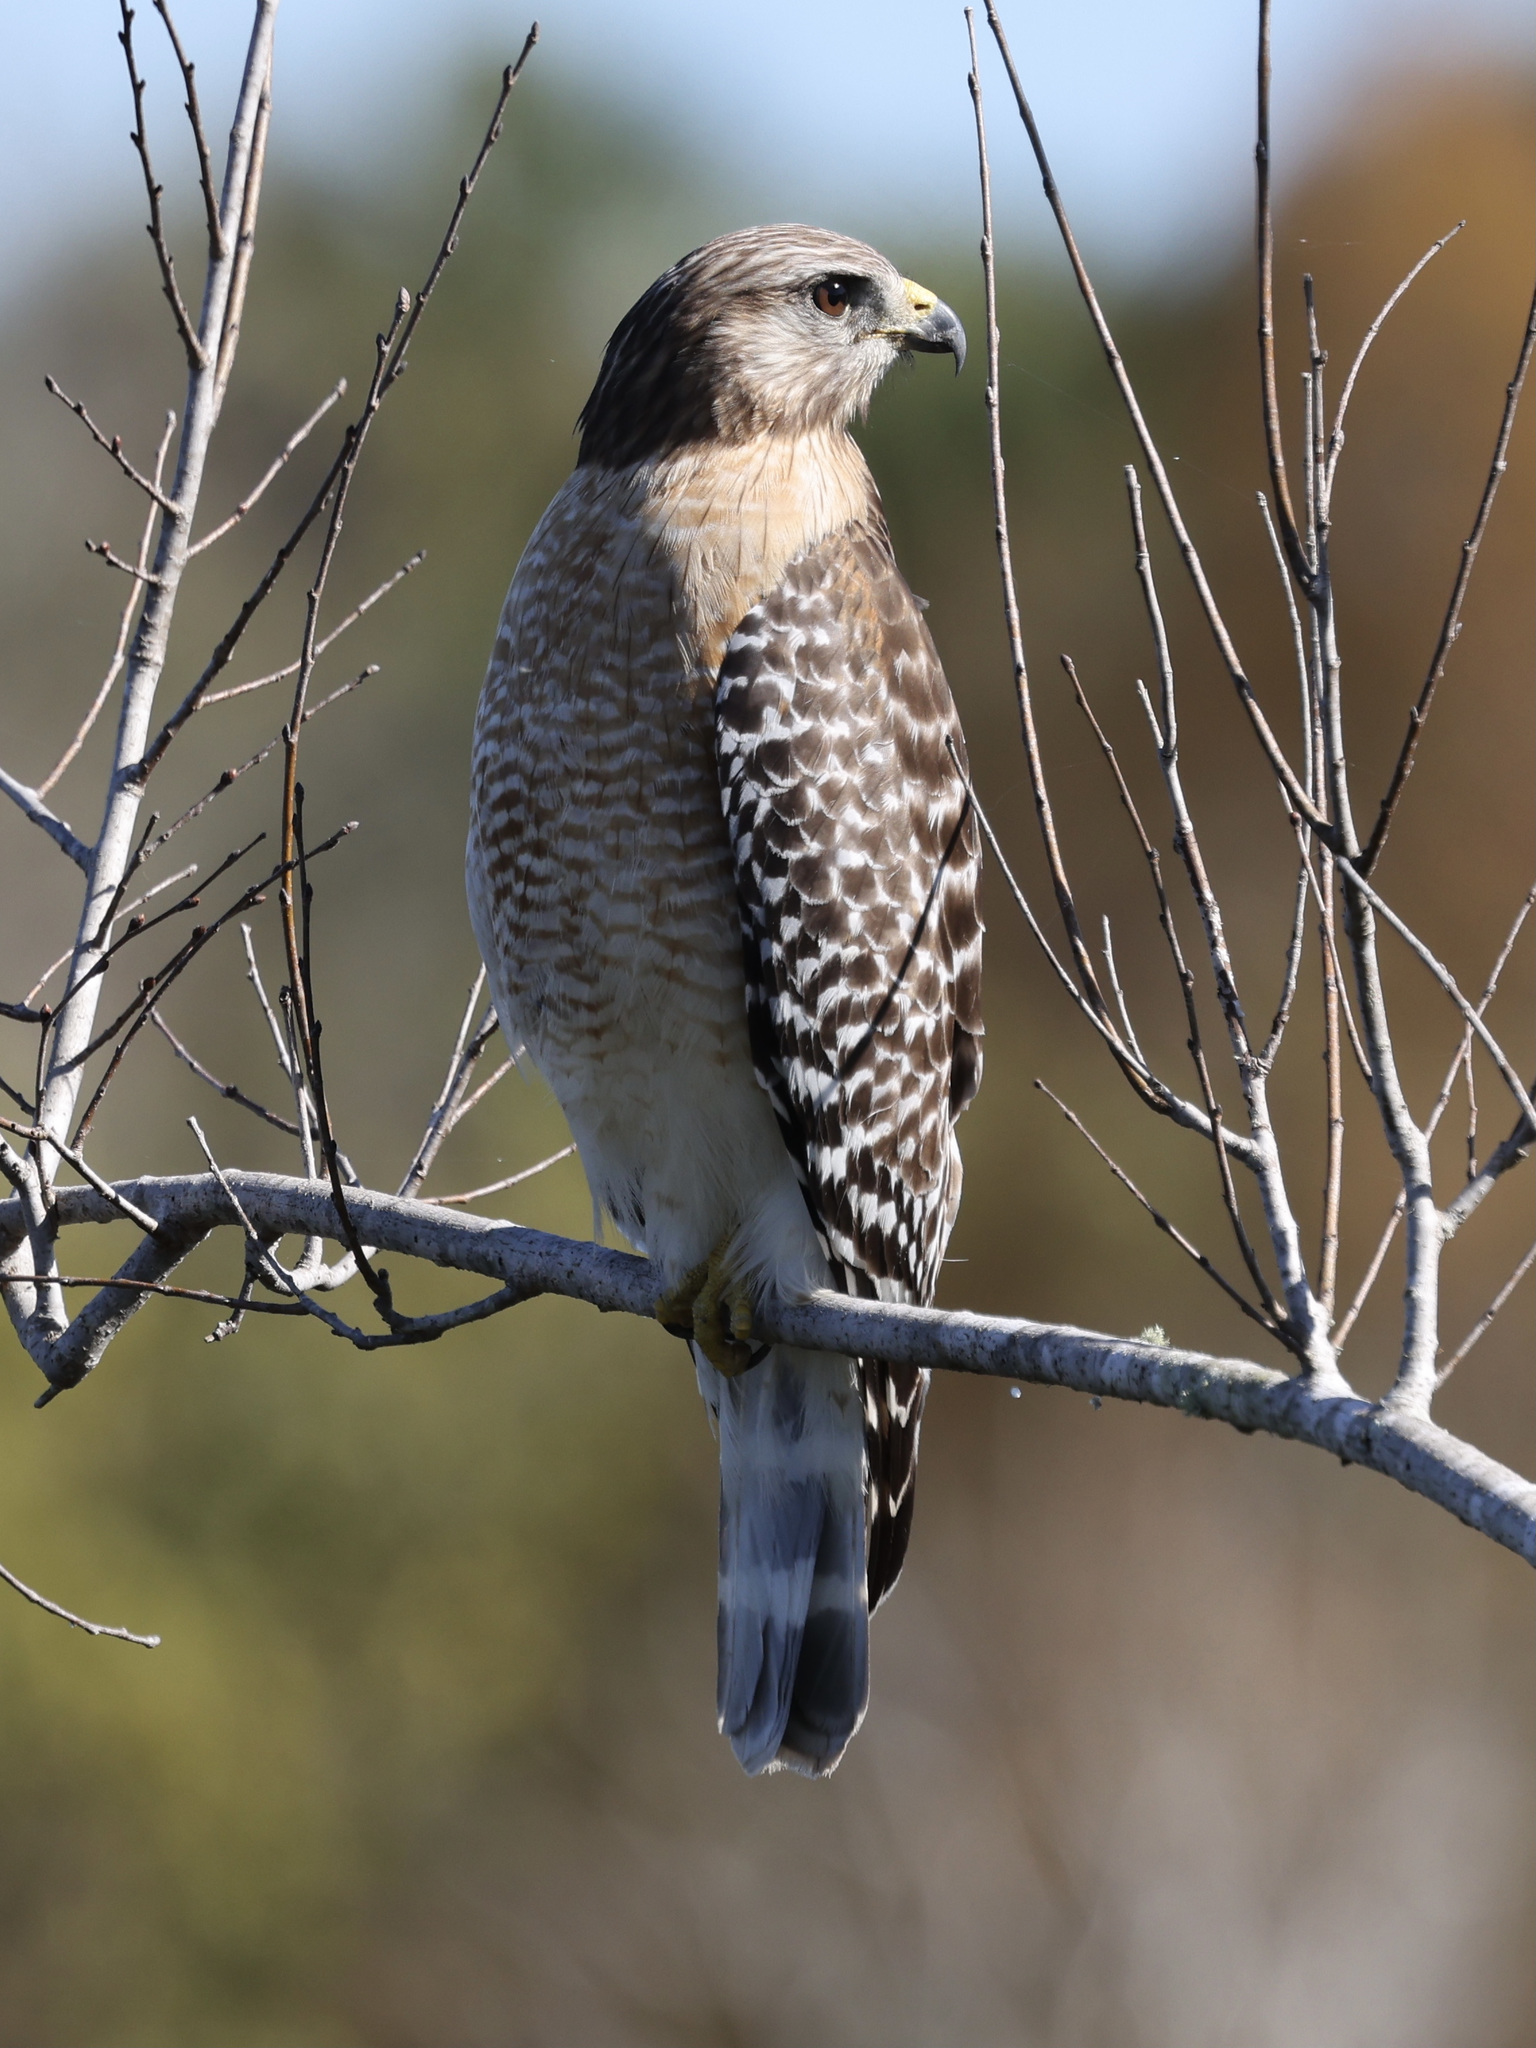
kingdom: Animalia
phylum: Chordata
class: Aves
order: Accipitriformes
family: Accipitridae
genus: Buteo
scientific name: Buteo lineatus
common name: Red-shouldered hawk
